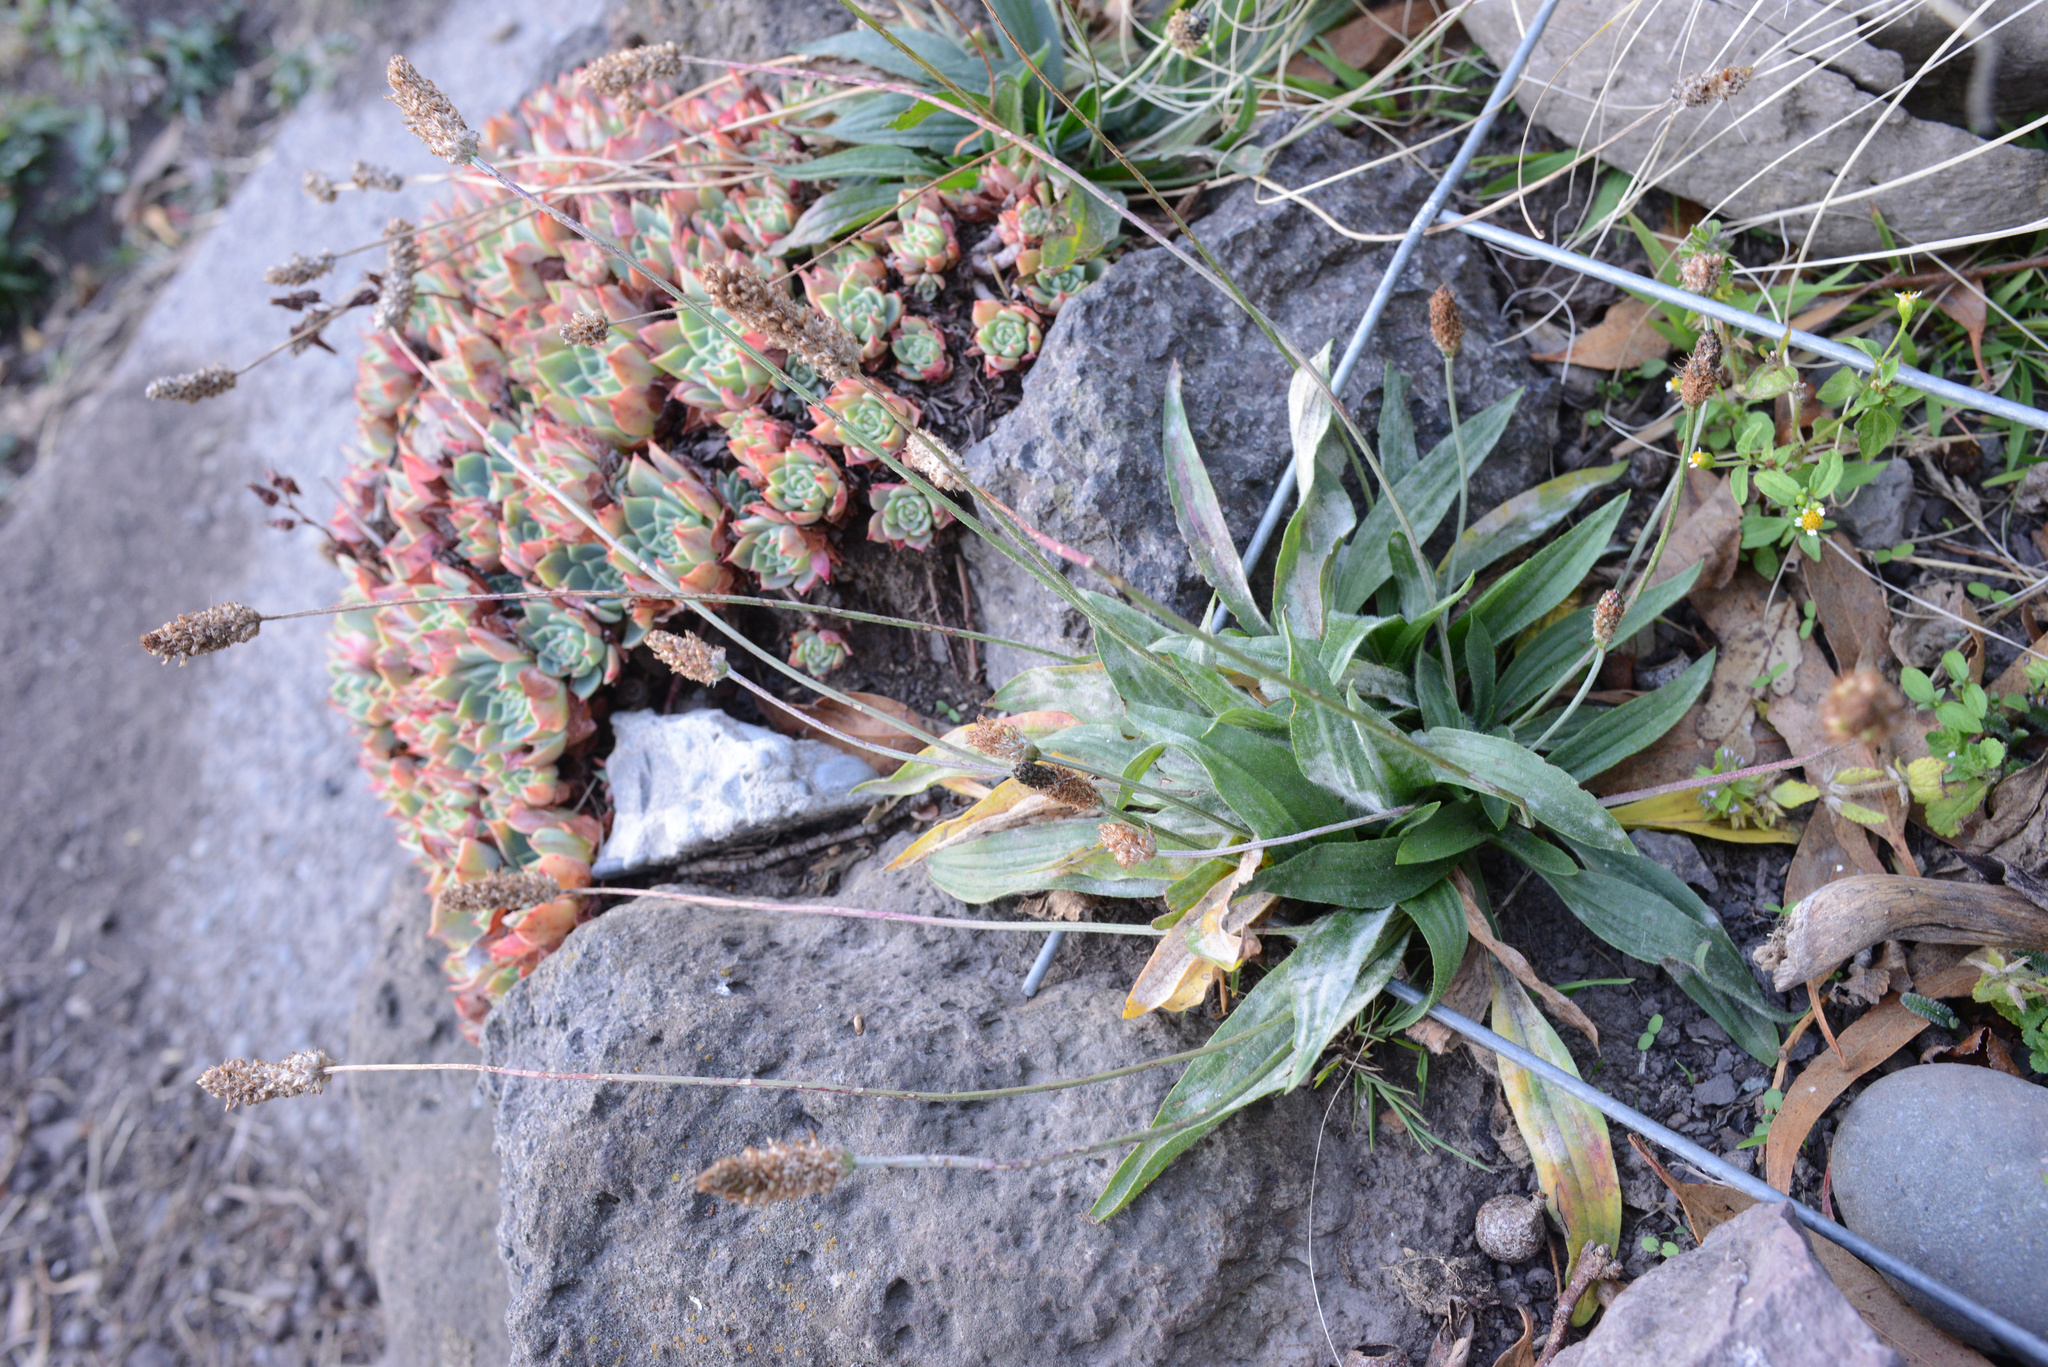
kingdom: Plantae
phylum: Tracheophyta
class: Magnoliopsida
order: Lamiales
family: Plantaginaceae
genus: Plantago
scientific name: Plantago lanceolata
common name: Ribwort plantain
